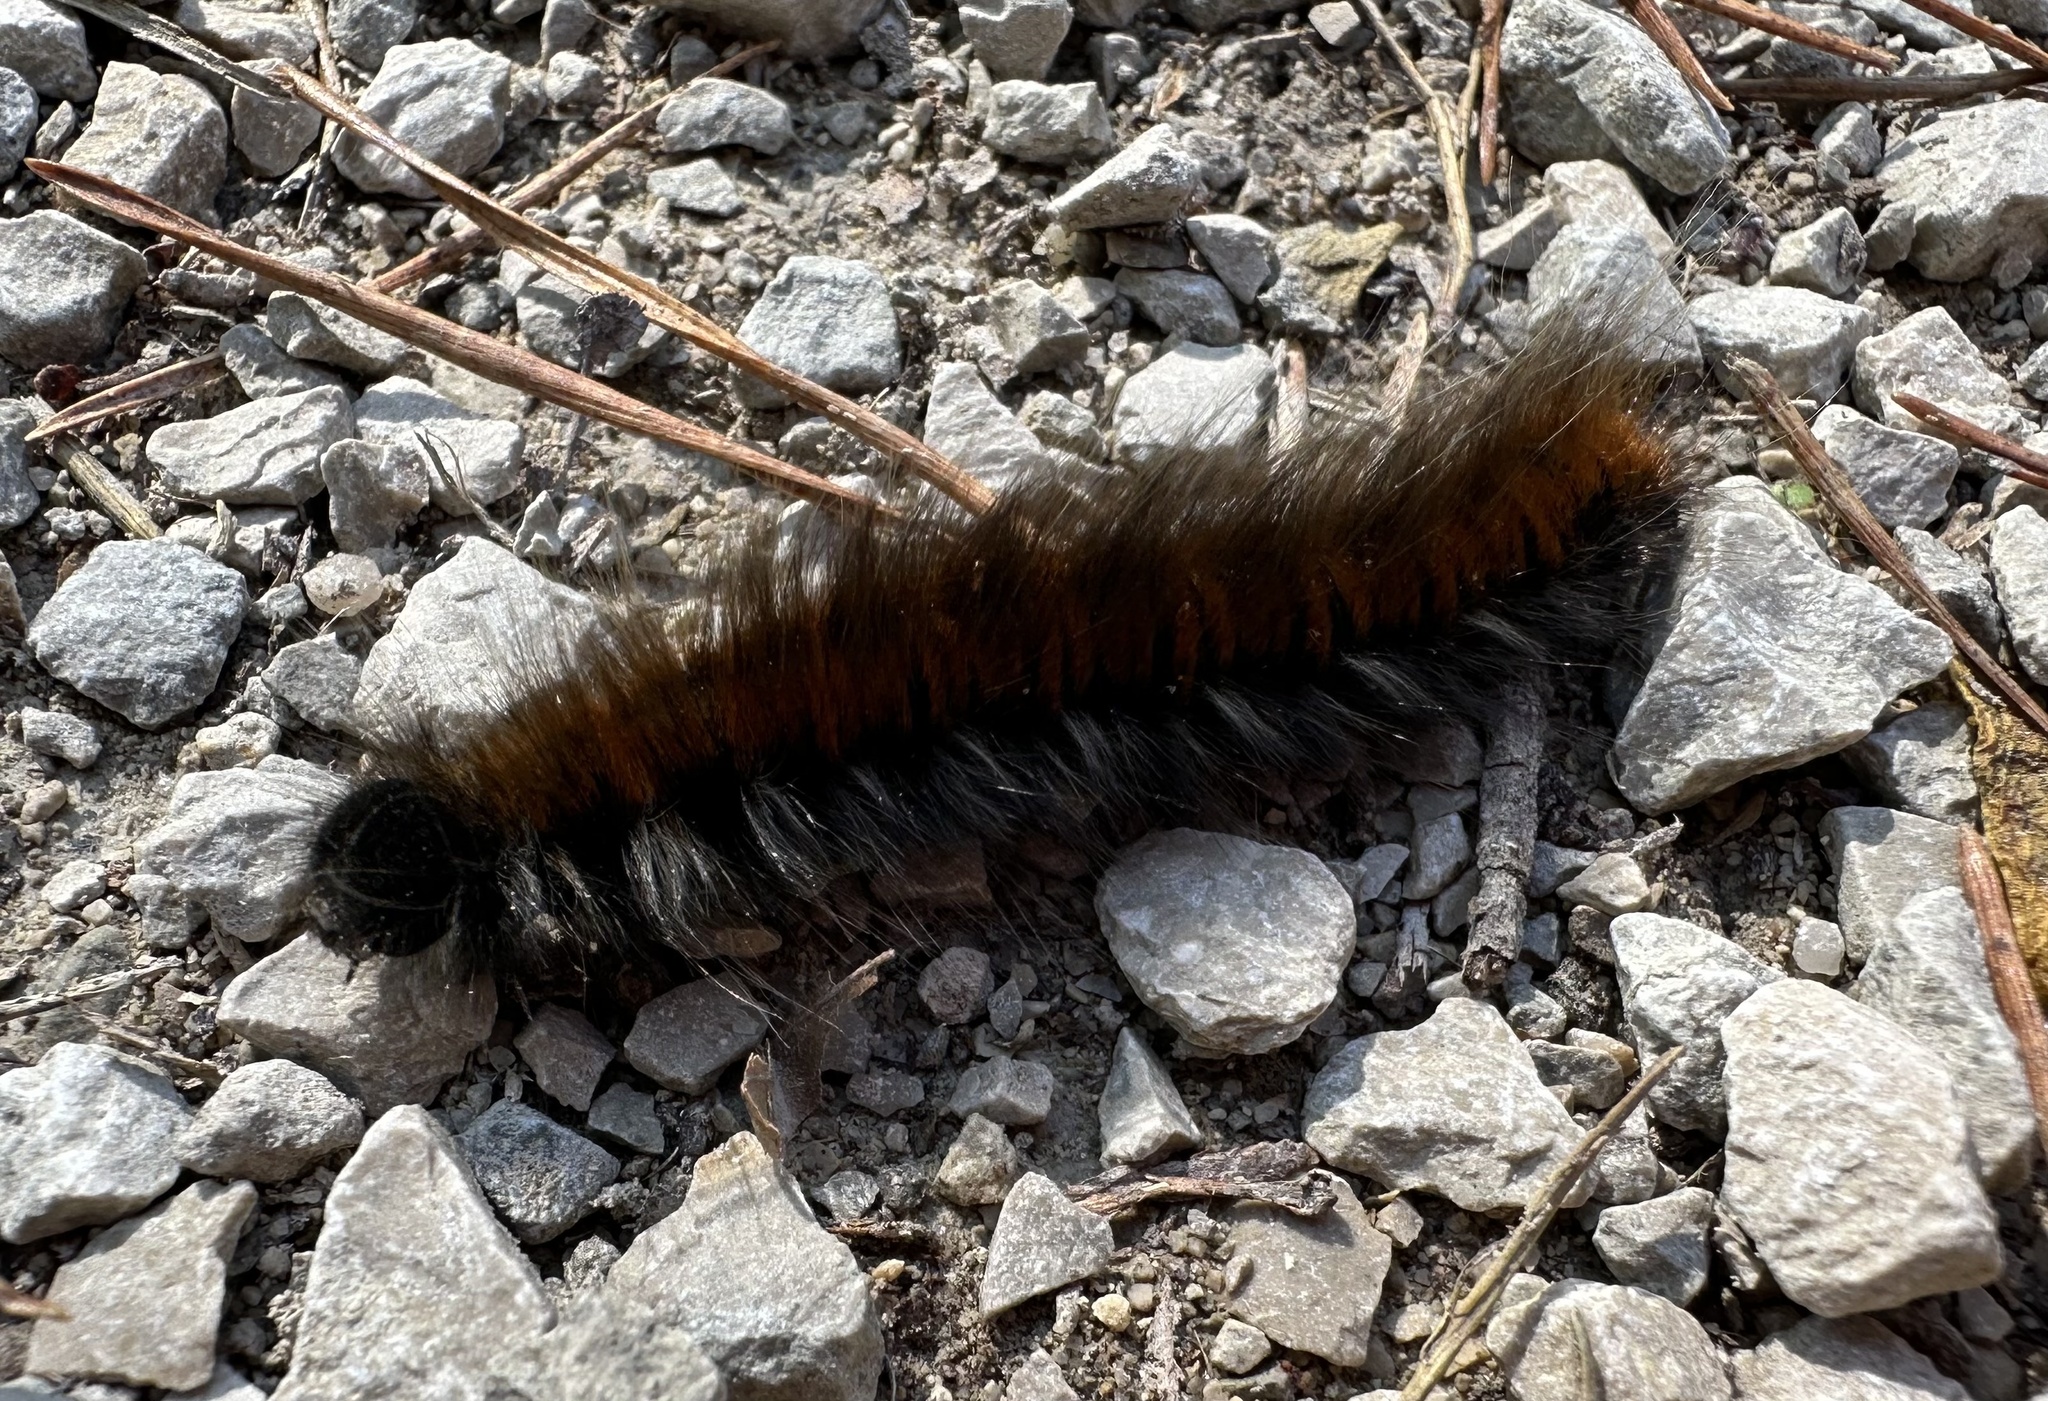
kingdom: Animalia
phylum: Arthropoda
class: Insecta
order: Lepidoptera
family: Lasiocampidae
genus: Macrothylacia
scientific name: Macrothylacia rubi
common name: Fox moth
